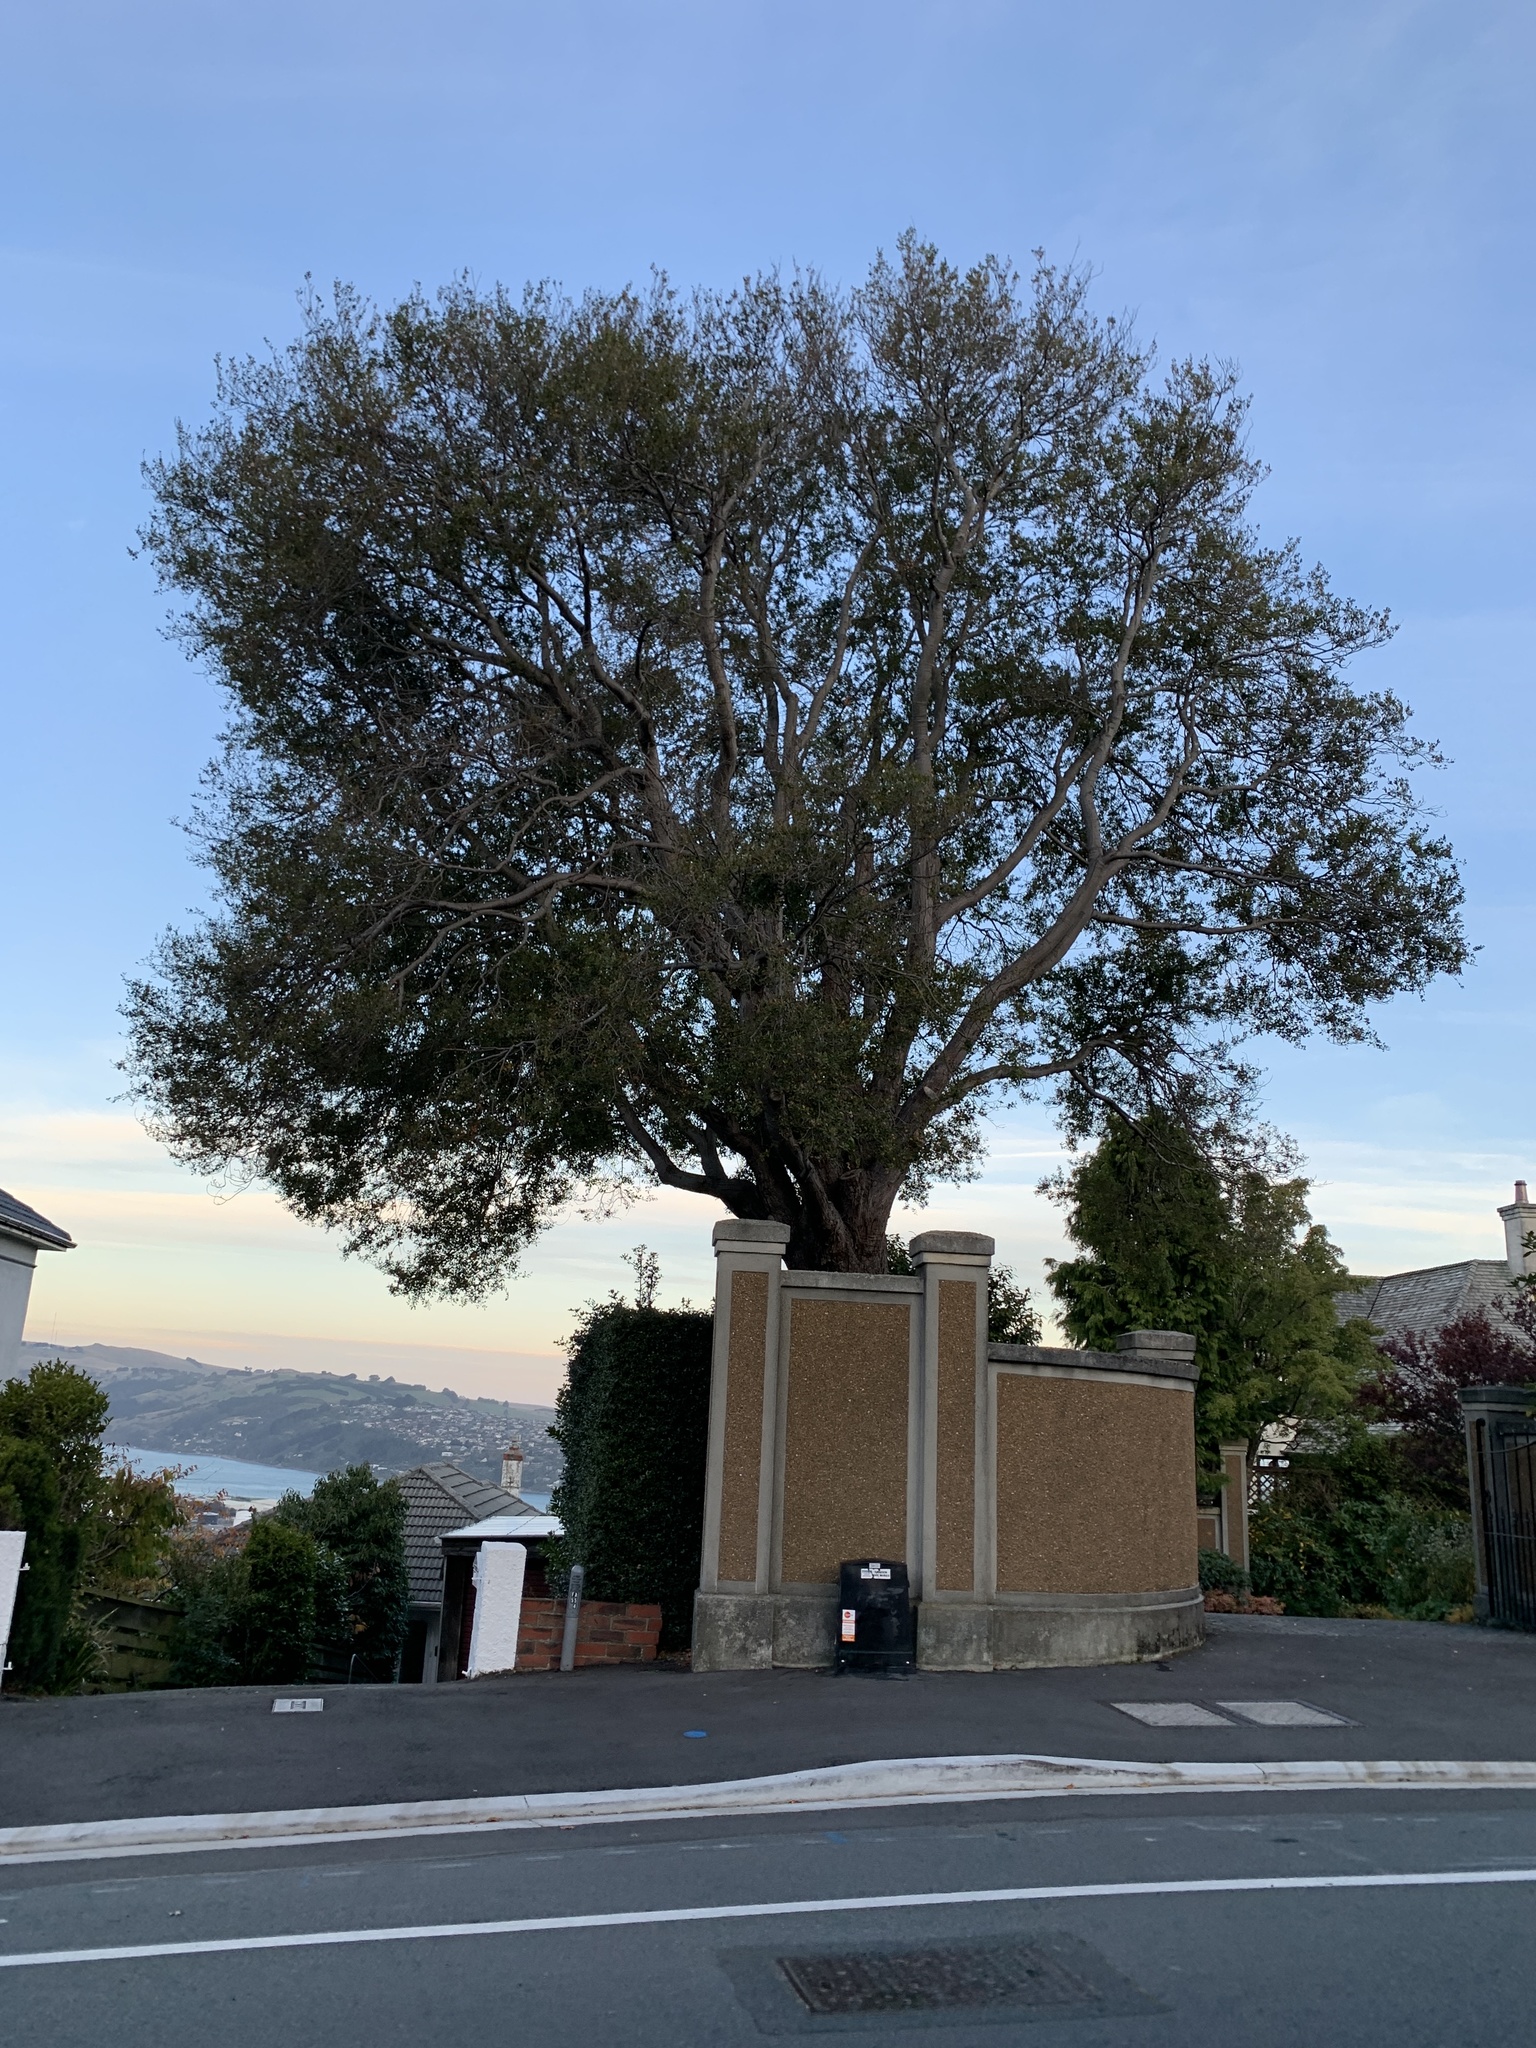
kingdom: Plantae
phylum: Tracheophyta
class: Magnoliopsida
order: Fagales
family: Nothofagaceae
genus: Nothofagus
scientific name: Nothofagus fusca
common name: Red beech
